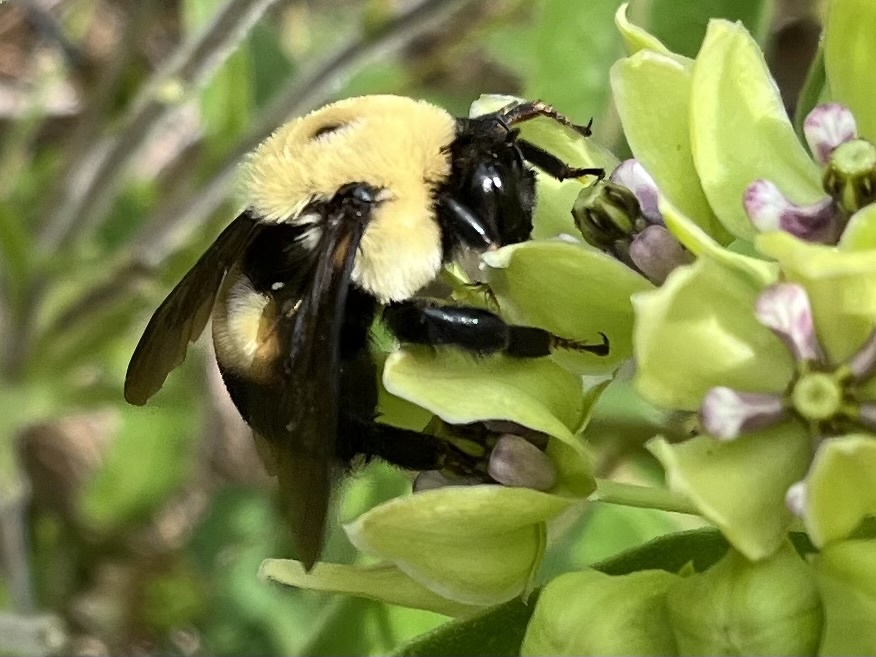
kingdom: Animalia
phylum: Arthropoda
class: Insecta
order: Hymenoptera
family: Apidae
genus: Bombus
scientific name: Bombus griseocollis
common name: Brown-belted bumble bee
